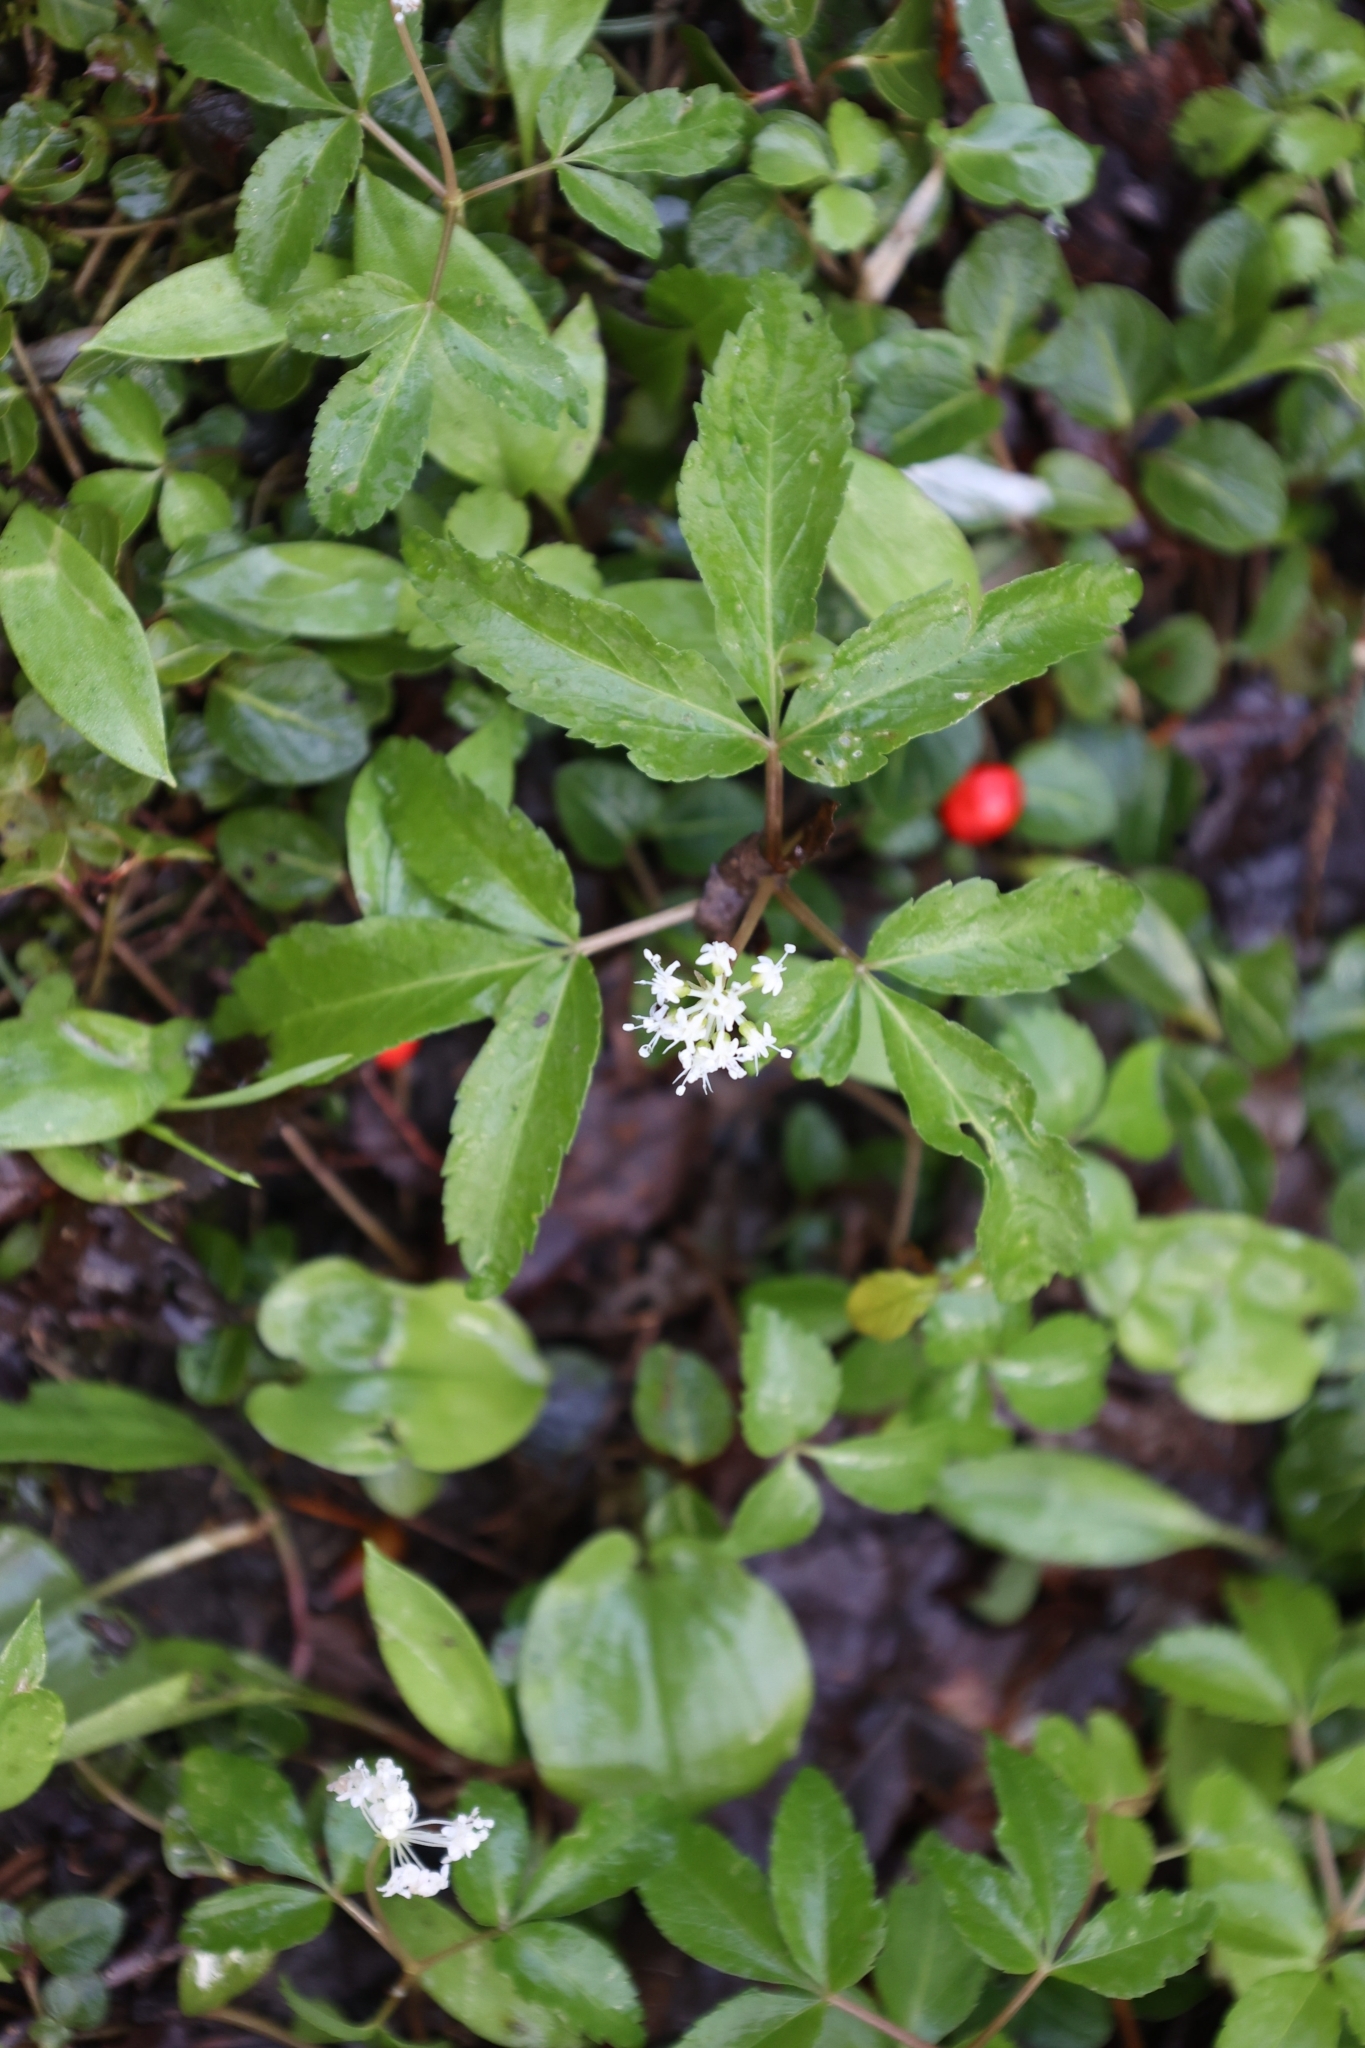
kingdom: Plantae
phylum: Tracheophyta
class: Magnoliopsida
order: Apiales
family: Araliaceae
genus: Panax
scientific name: Panax trifolius
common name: Dwarf ginseng
